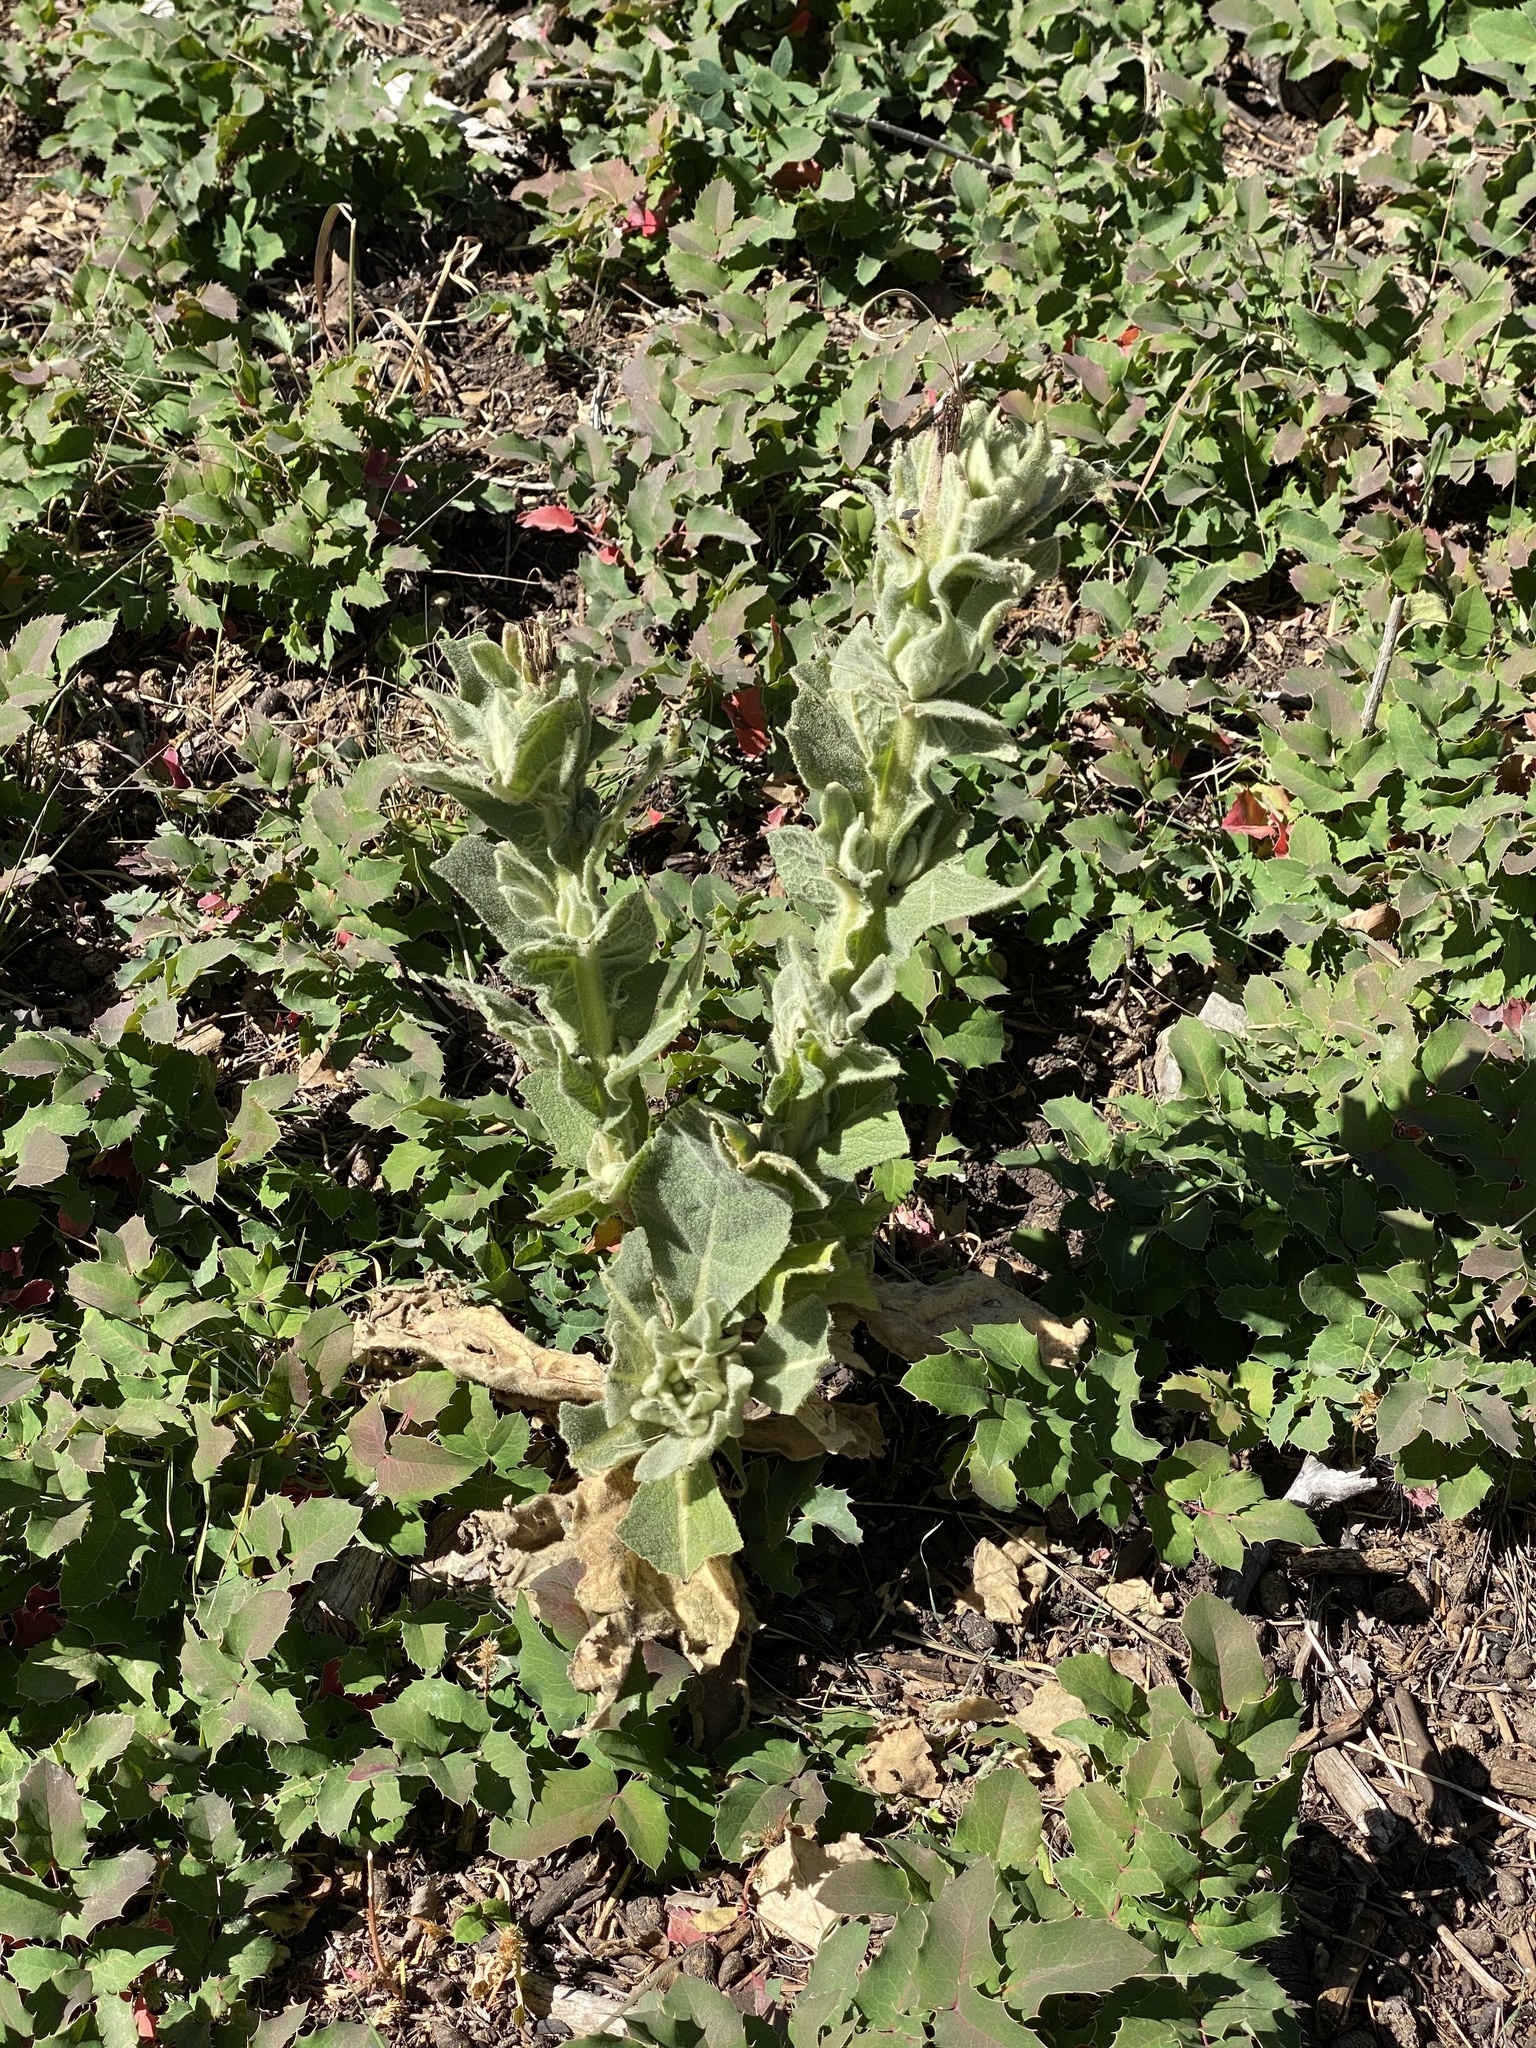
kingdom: Plantae
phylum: Tracheophyta
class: Magnoliopsida
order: Lamiales
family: Scrophulariaceae
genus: Verbascum
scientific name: Verbascum thapsus
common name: Common mullein
